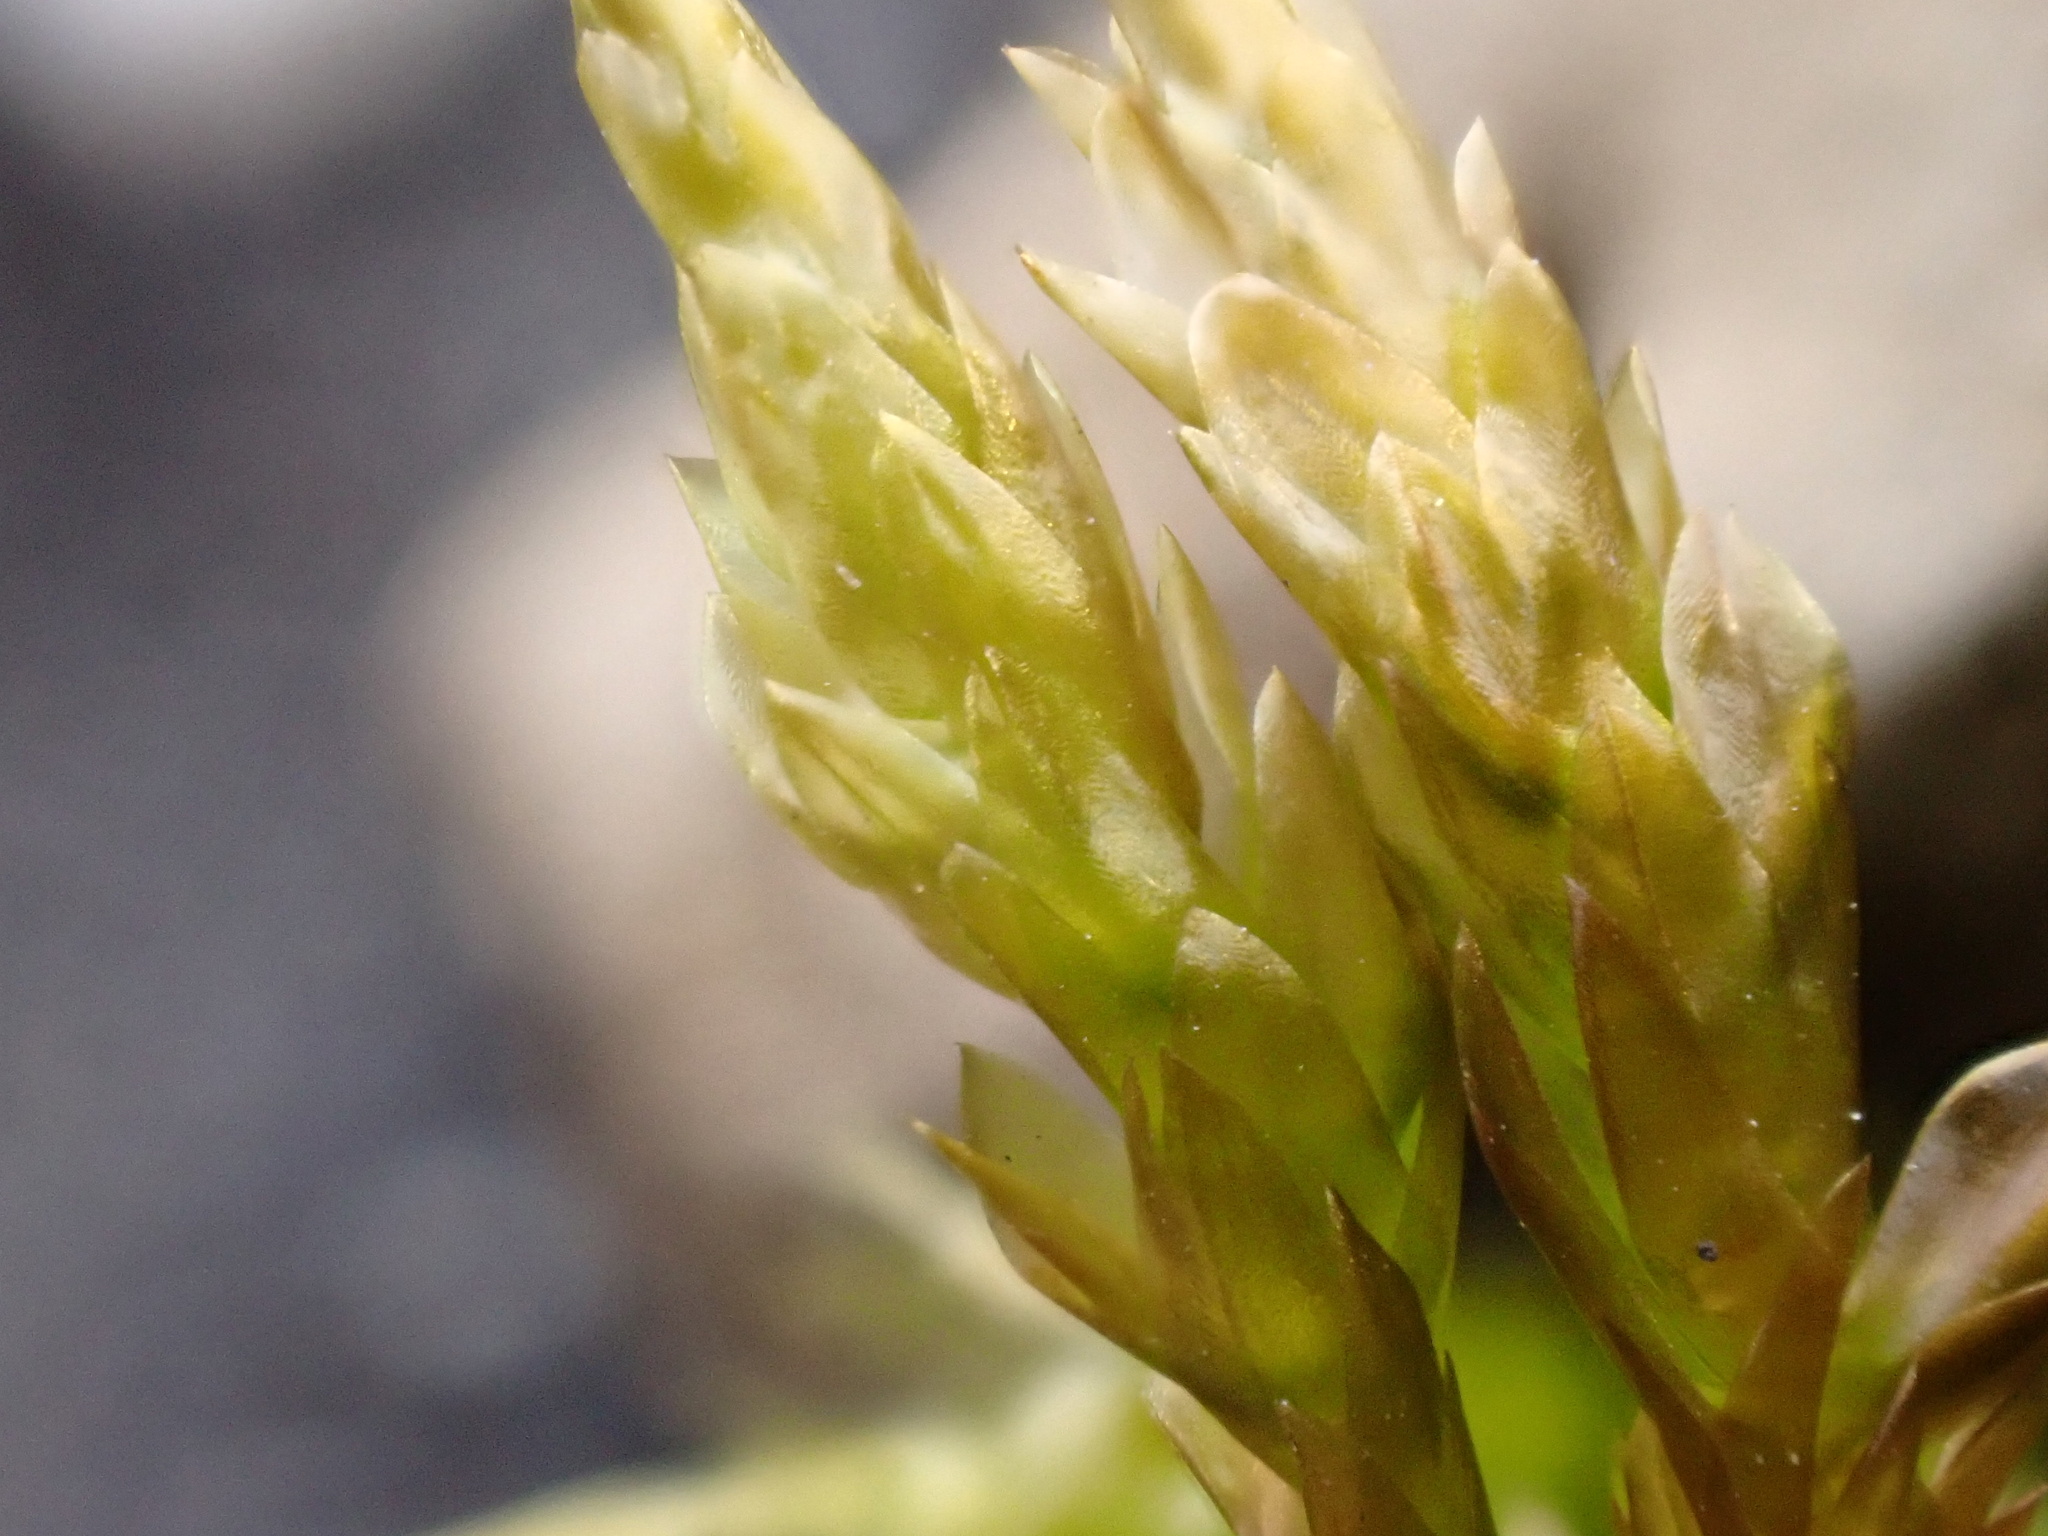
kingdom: Plantae
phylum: Bryophyta
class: Bryopsida
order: Hypnales
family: Pylaisiaceae
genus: Calliergonella
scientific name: Calliergonella cuspidata
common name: Common large wetland moss
